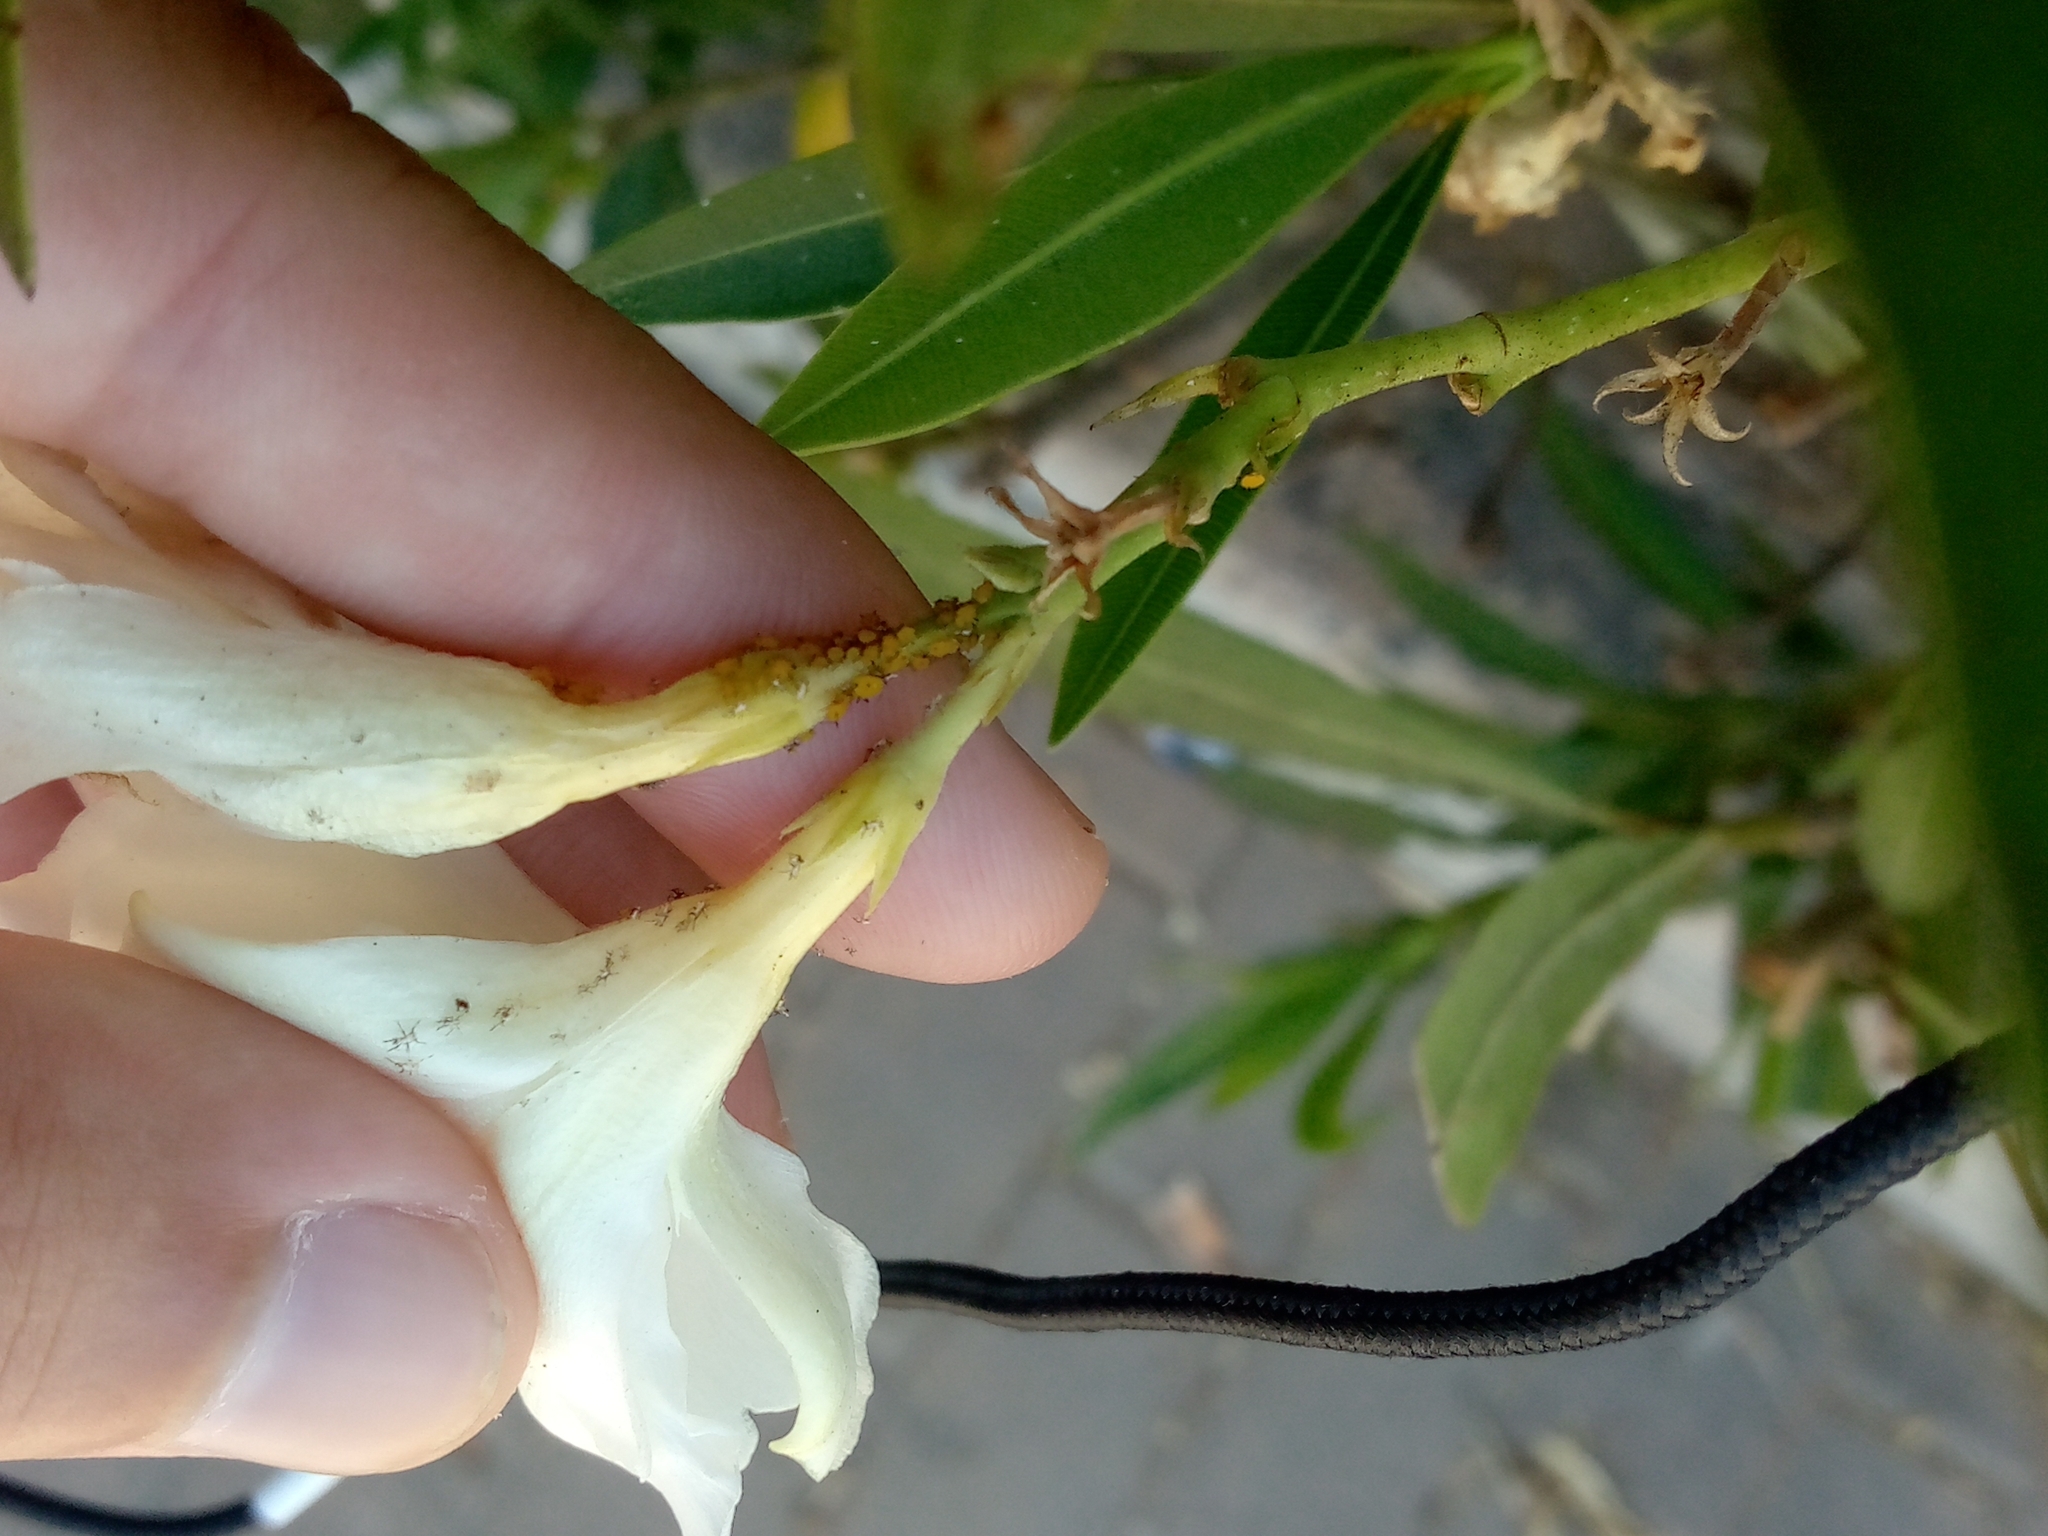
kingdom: Animalia
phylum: Arthropoda
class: Insecta
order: Hemiptera
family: Aphididae
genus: Aphis
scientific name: Aphis nerii
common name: Oleander aphid
